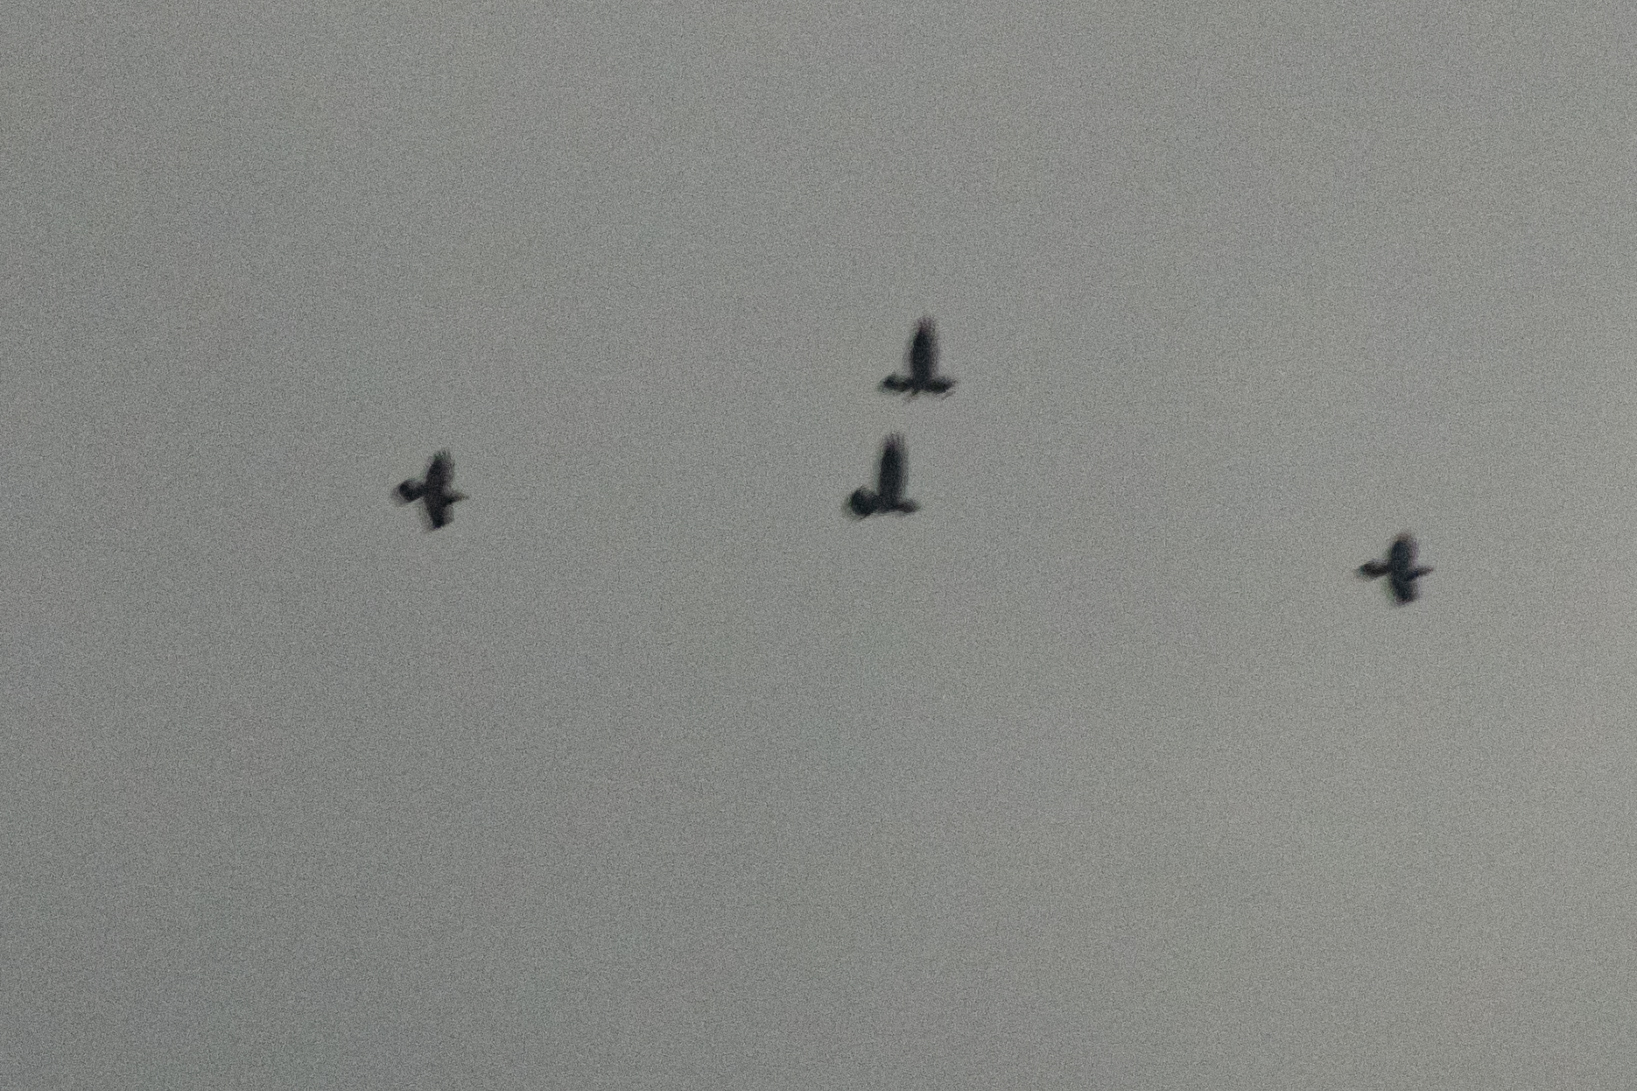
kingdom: Animalia
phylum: Chordata
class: Aves
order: Passeriformes
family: Corvidae
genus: Corvus
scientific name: Corvus corax
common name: Common raven
